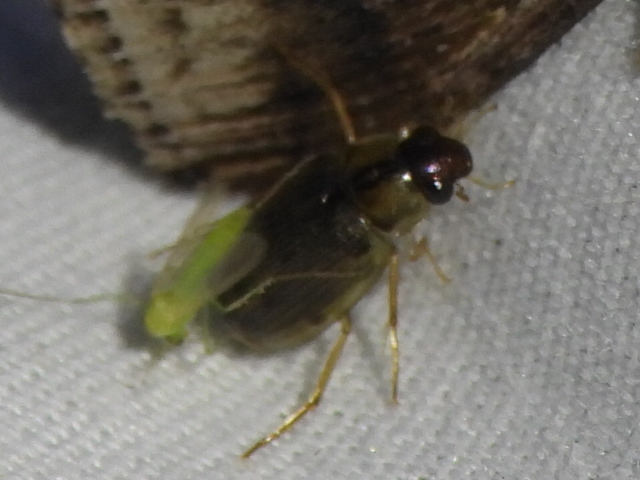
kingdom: Animalia
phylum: Arthropoda
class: Insecta
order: Coleoptera
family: Hydrophilidae
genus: Berosus
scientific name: Berosus
